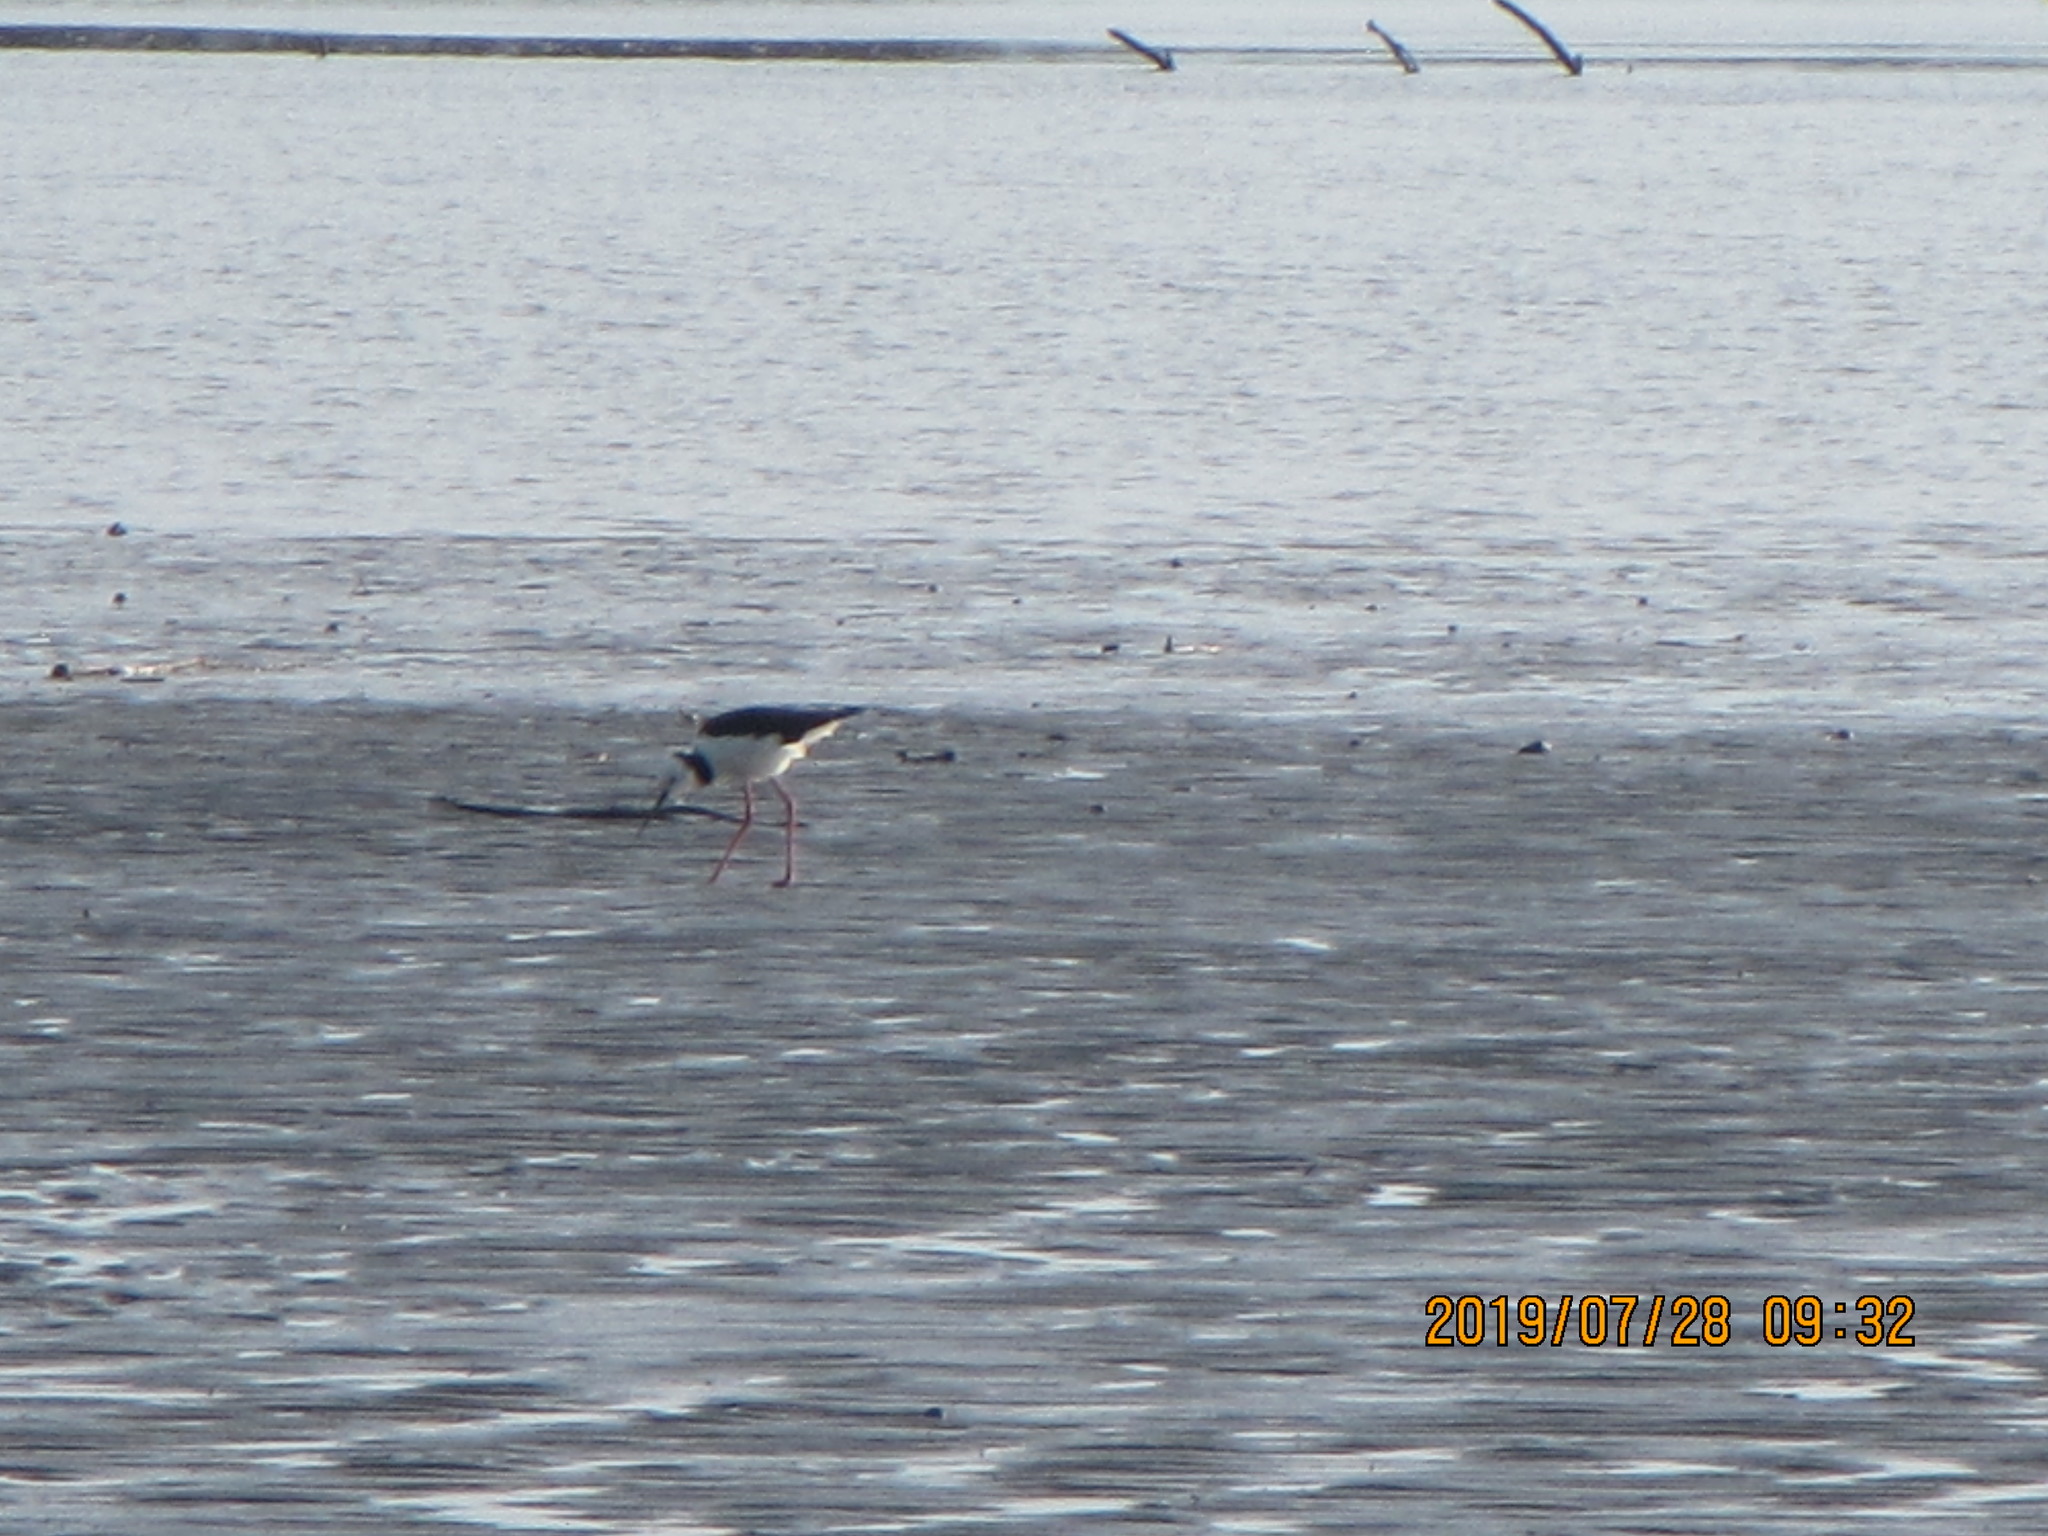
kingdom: Animalia
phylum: Chordata
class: Aves
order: Charadriiformes
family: Recurvirostridae
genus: Himantopus
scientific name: Himantopus leucocephalus
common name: White-headed stilt
